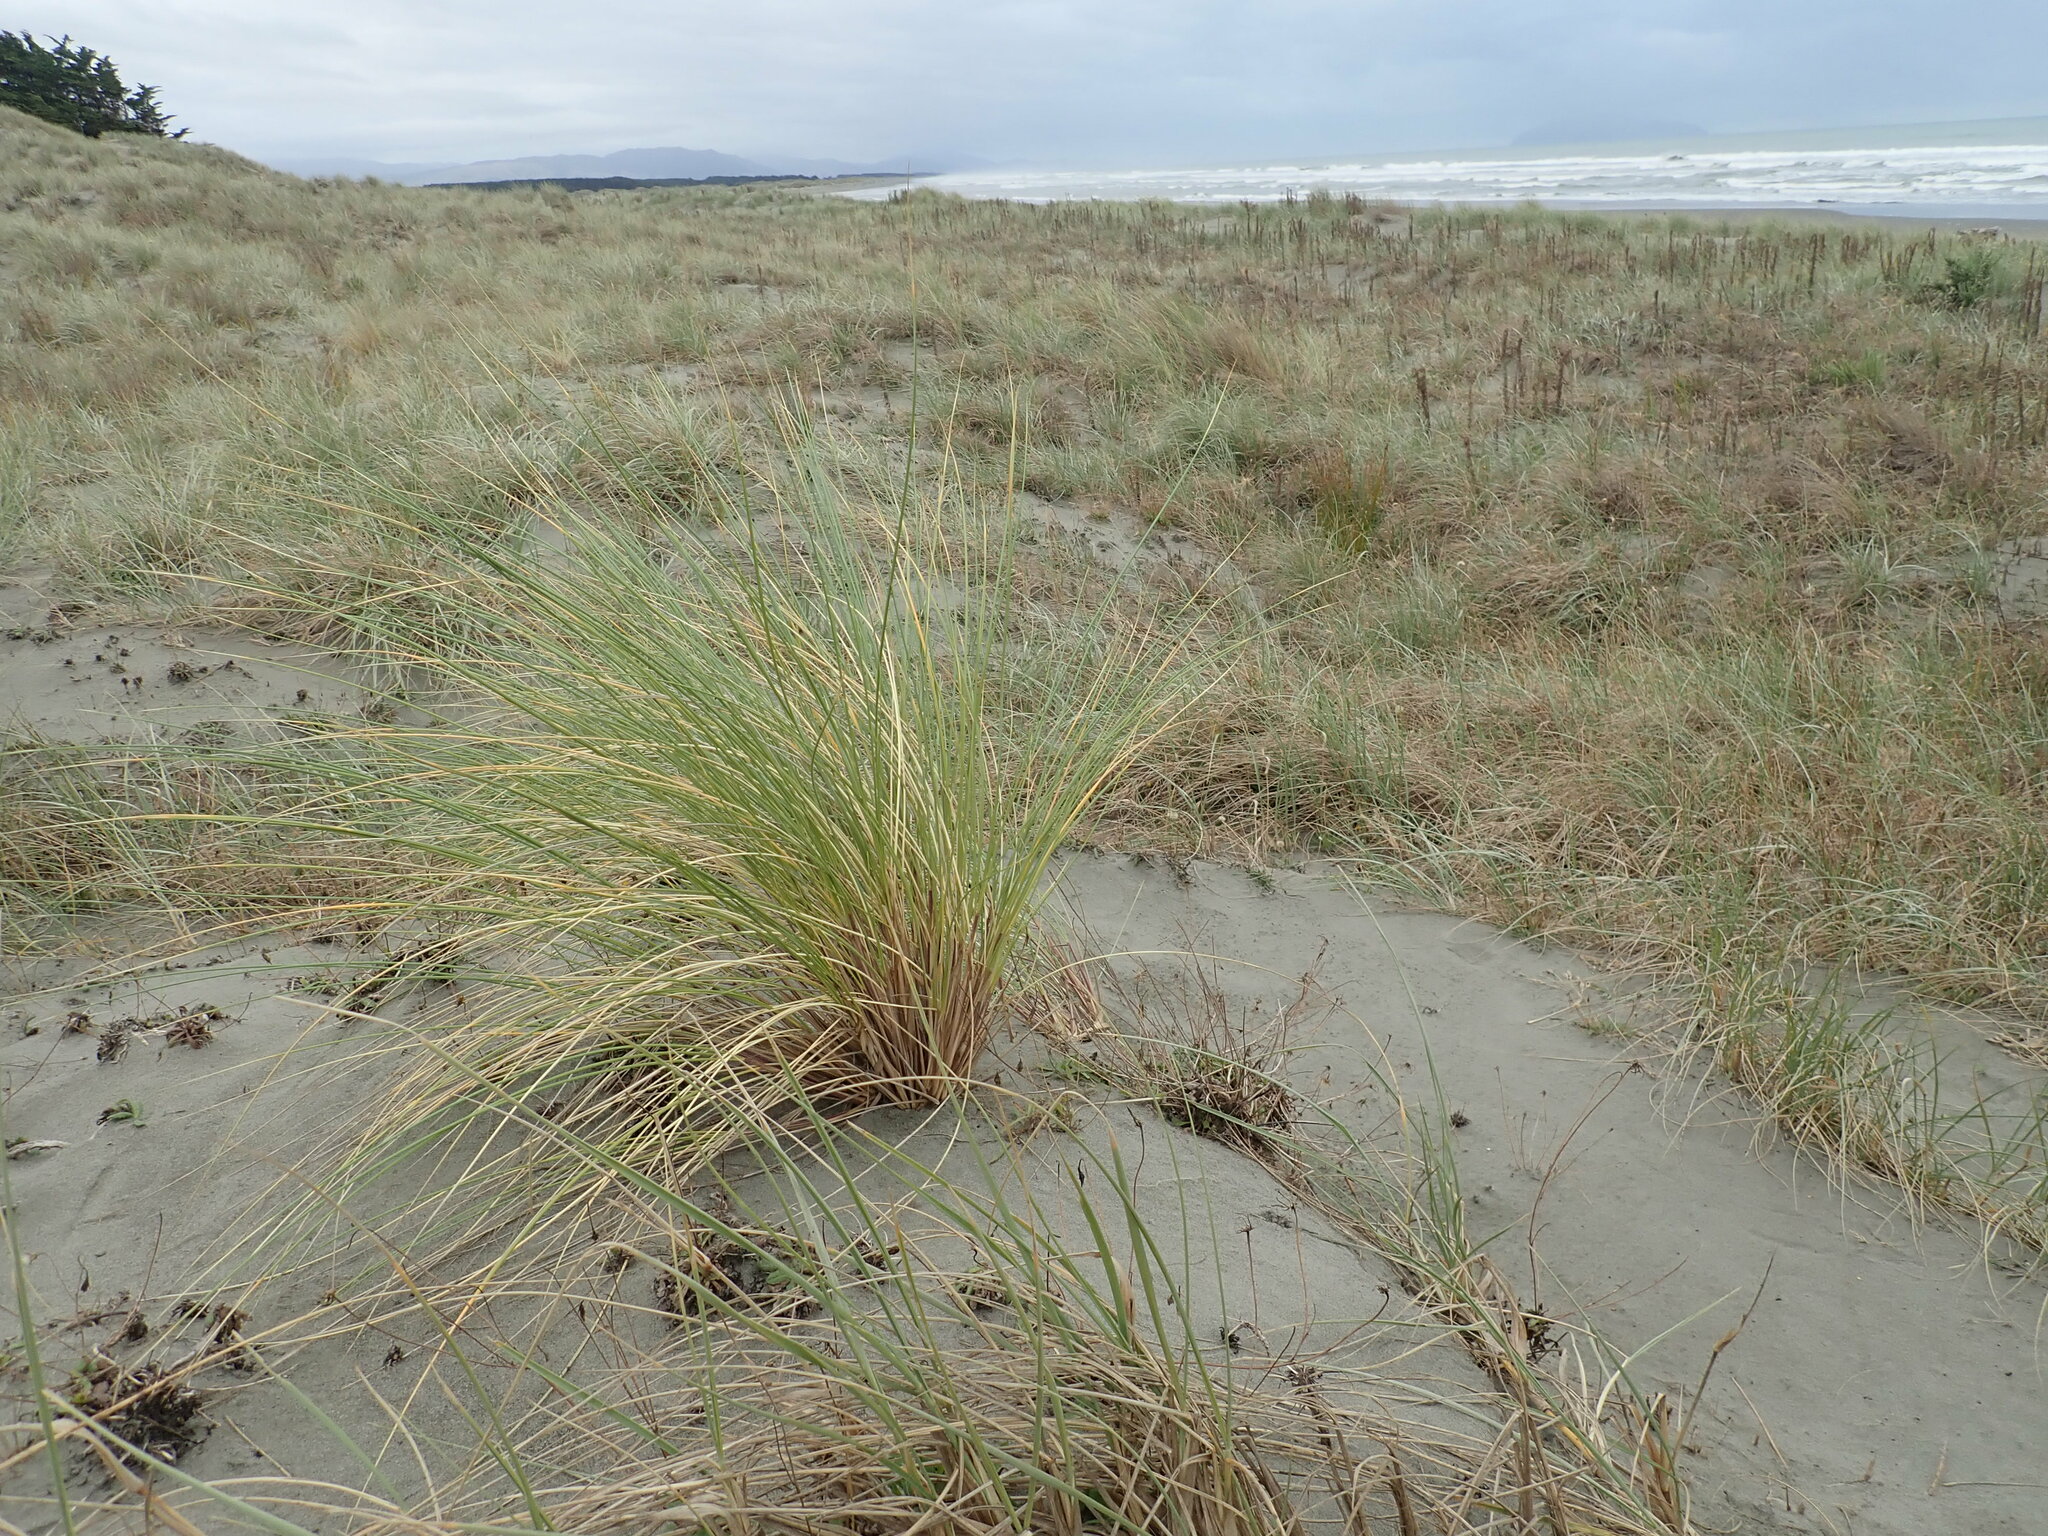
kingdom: Plantae
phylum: Tracheophyta
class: Liliopsida
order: Poales
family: Poaceae
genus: Calamagrostis
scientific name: Calamagrostis arenaria
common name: European beachgrass
